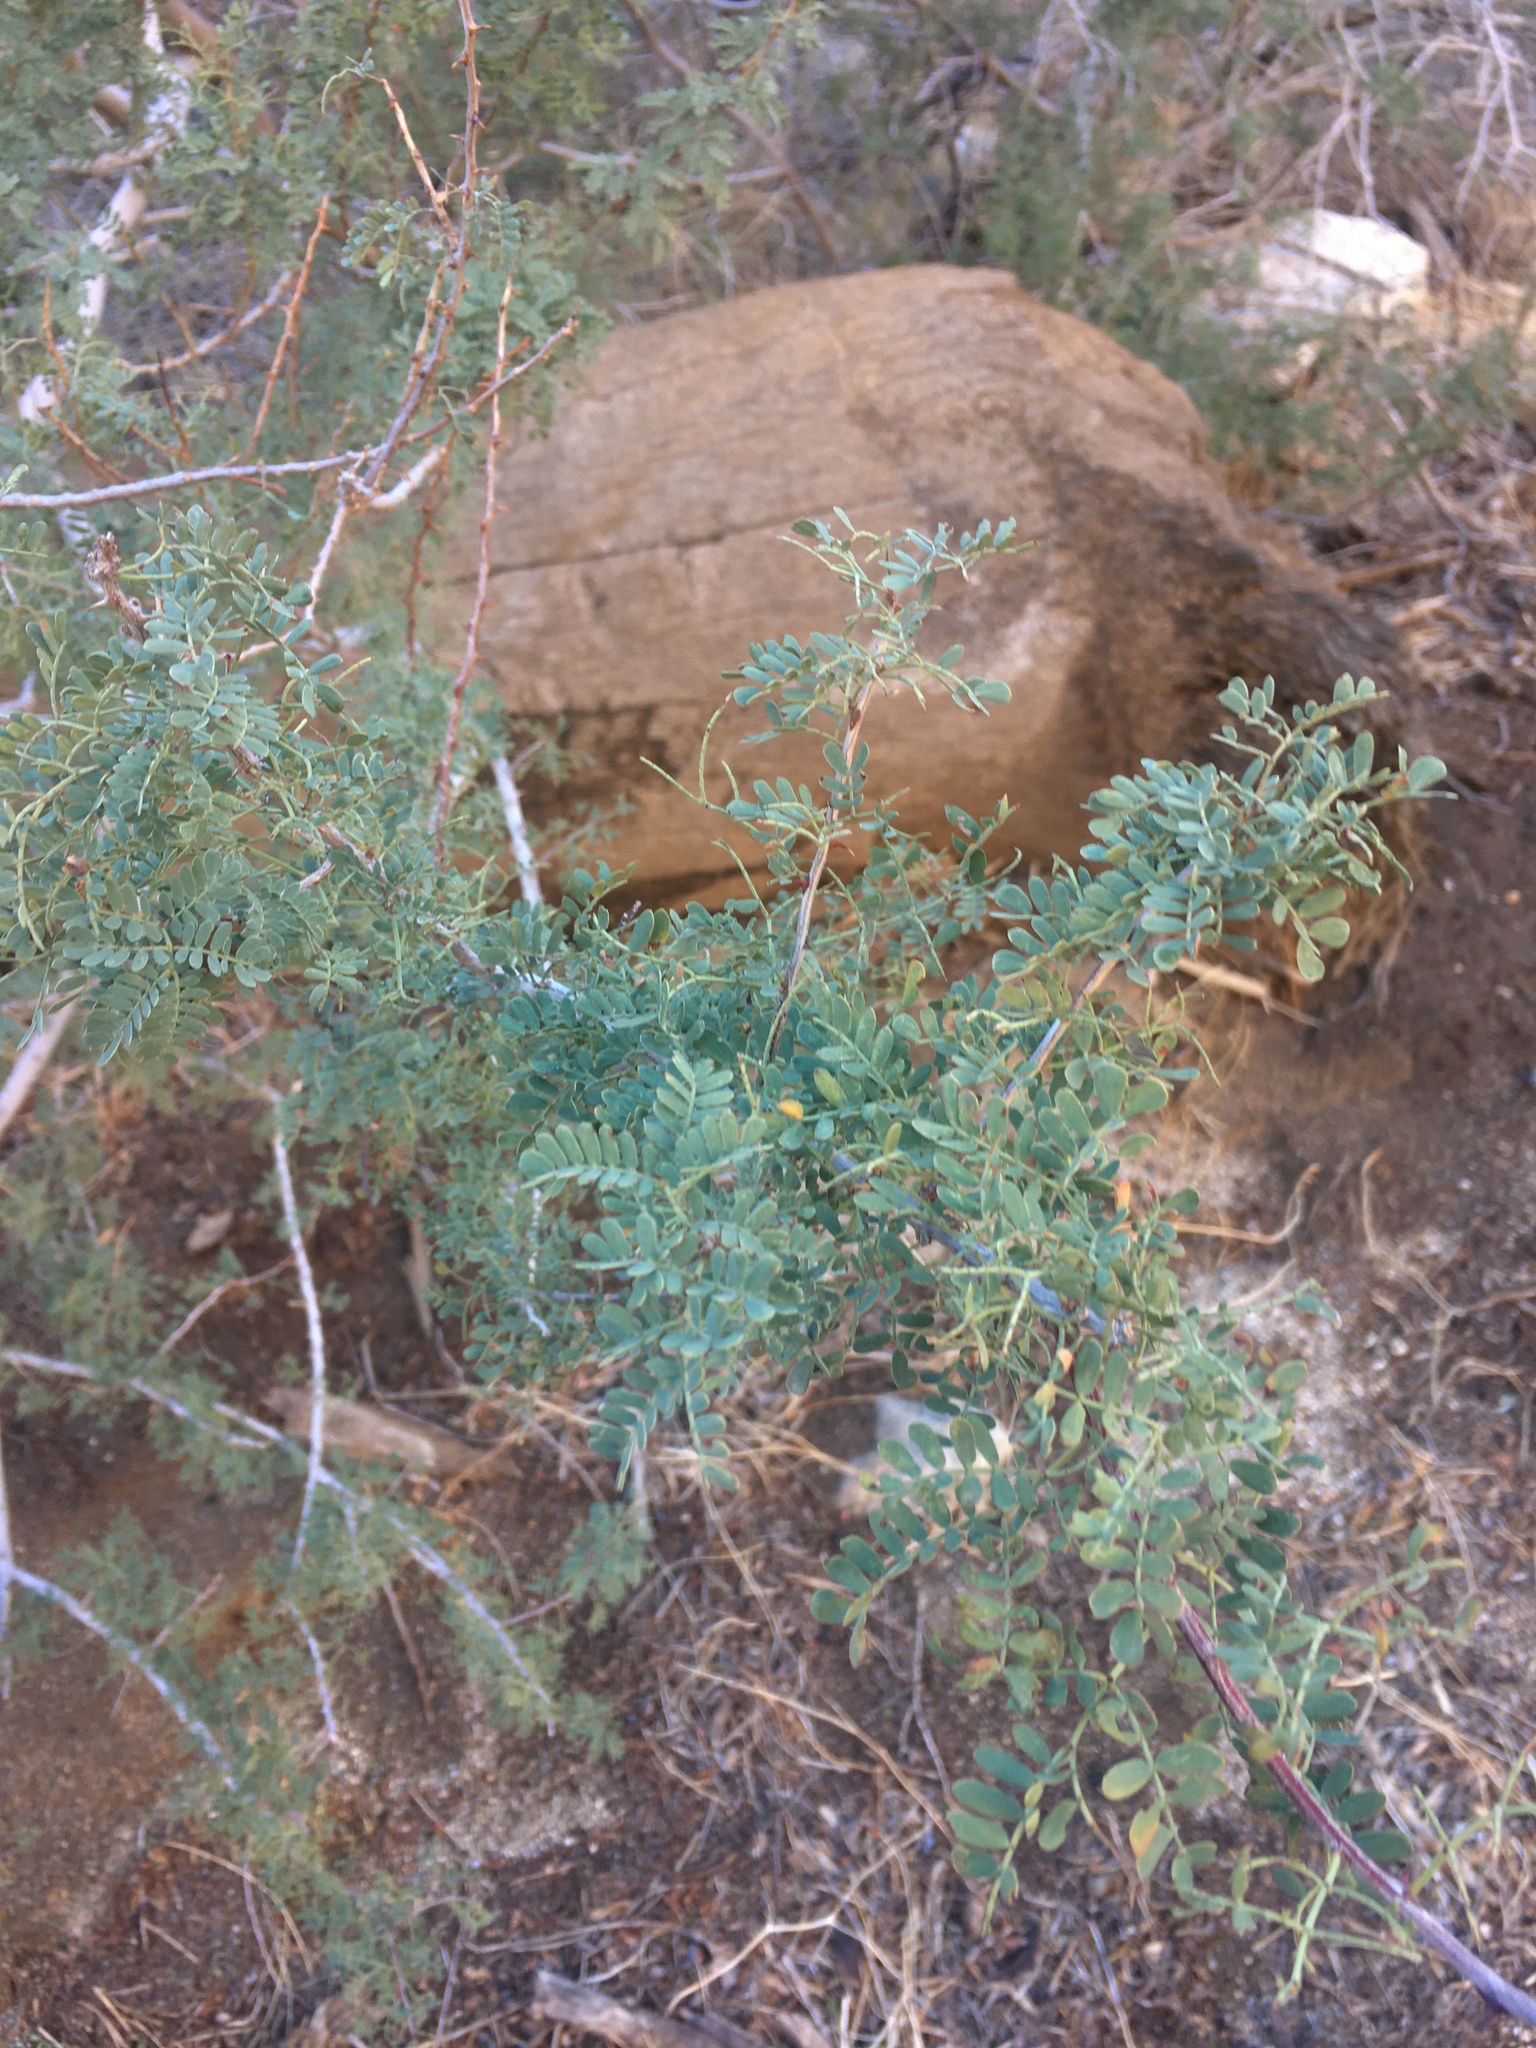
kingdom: Plantae
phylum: Tracheophyta
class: Magnoliopsida
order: Fabales
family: Fabaceae
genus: Senegalia
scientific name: Senegalia greggii
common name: Texas-mimosa
